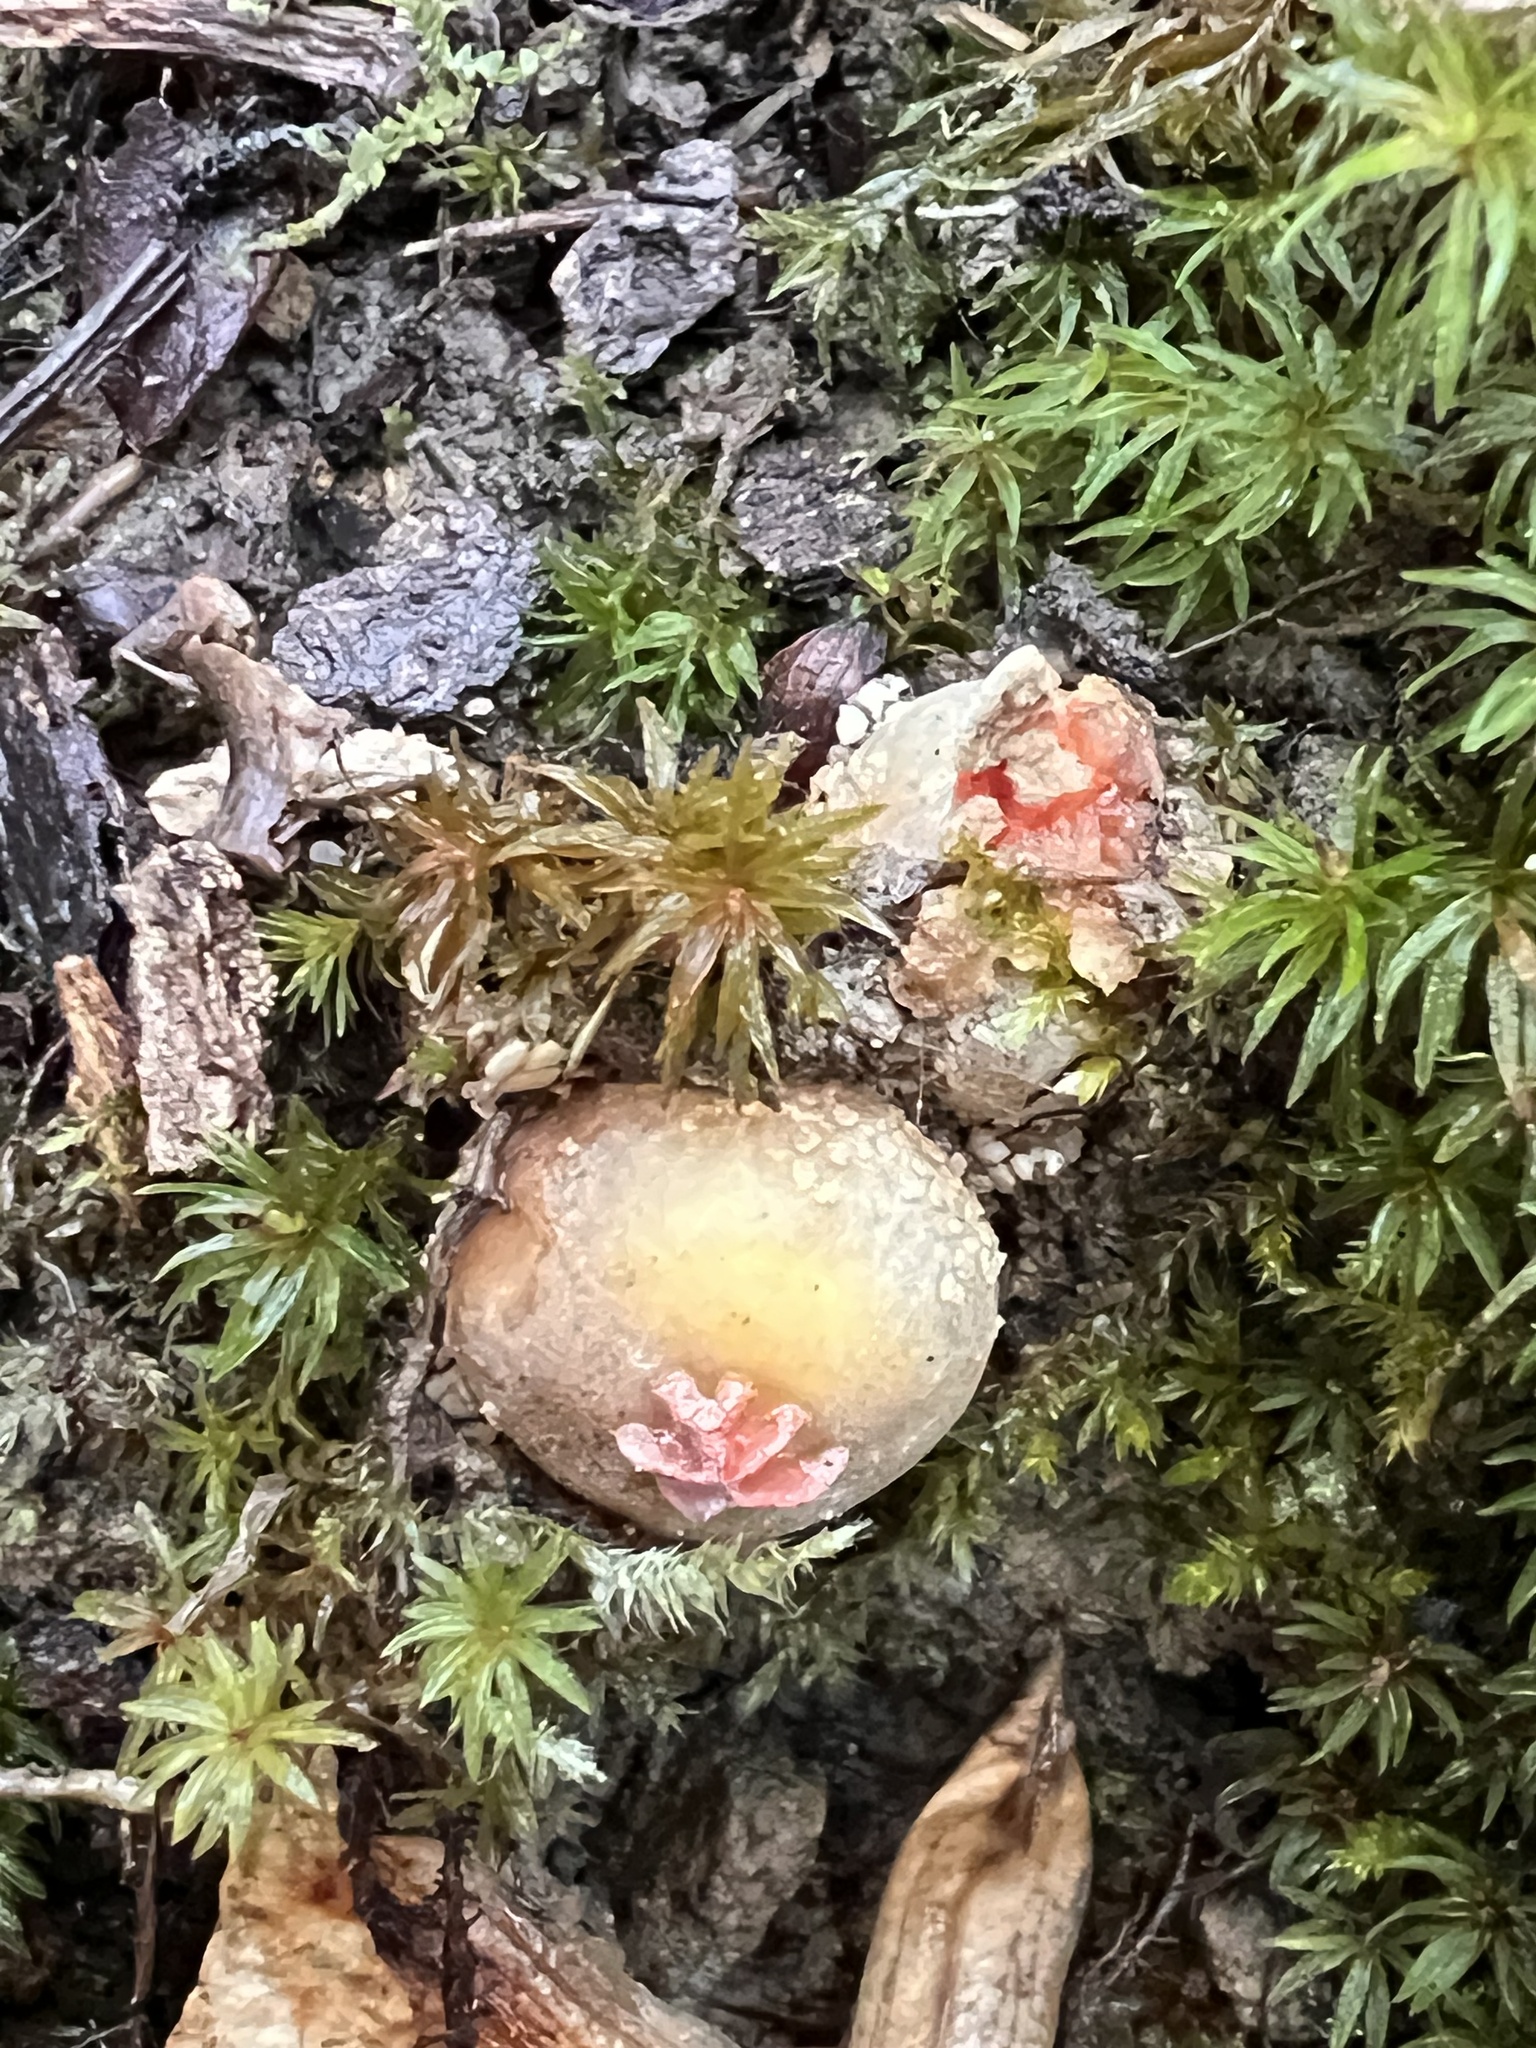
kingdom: Fungi
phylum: Basidiomycota
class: Agaricomycetes
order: Boletales
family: Calostomataceae
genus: Calostoma
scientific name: Calostoma ravenelii
